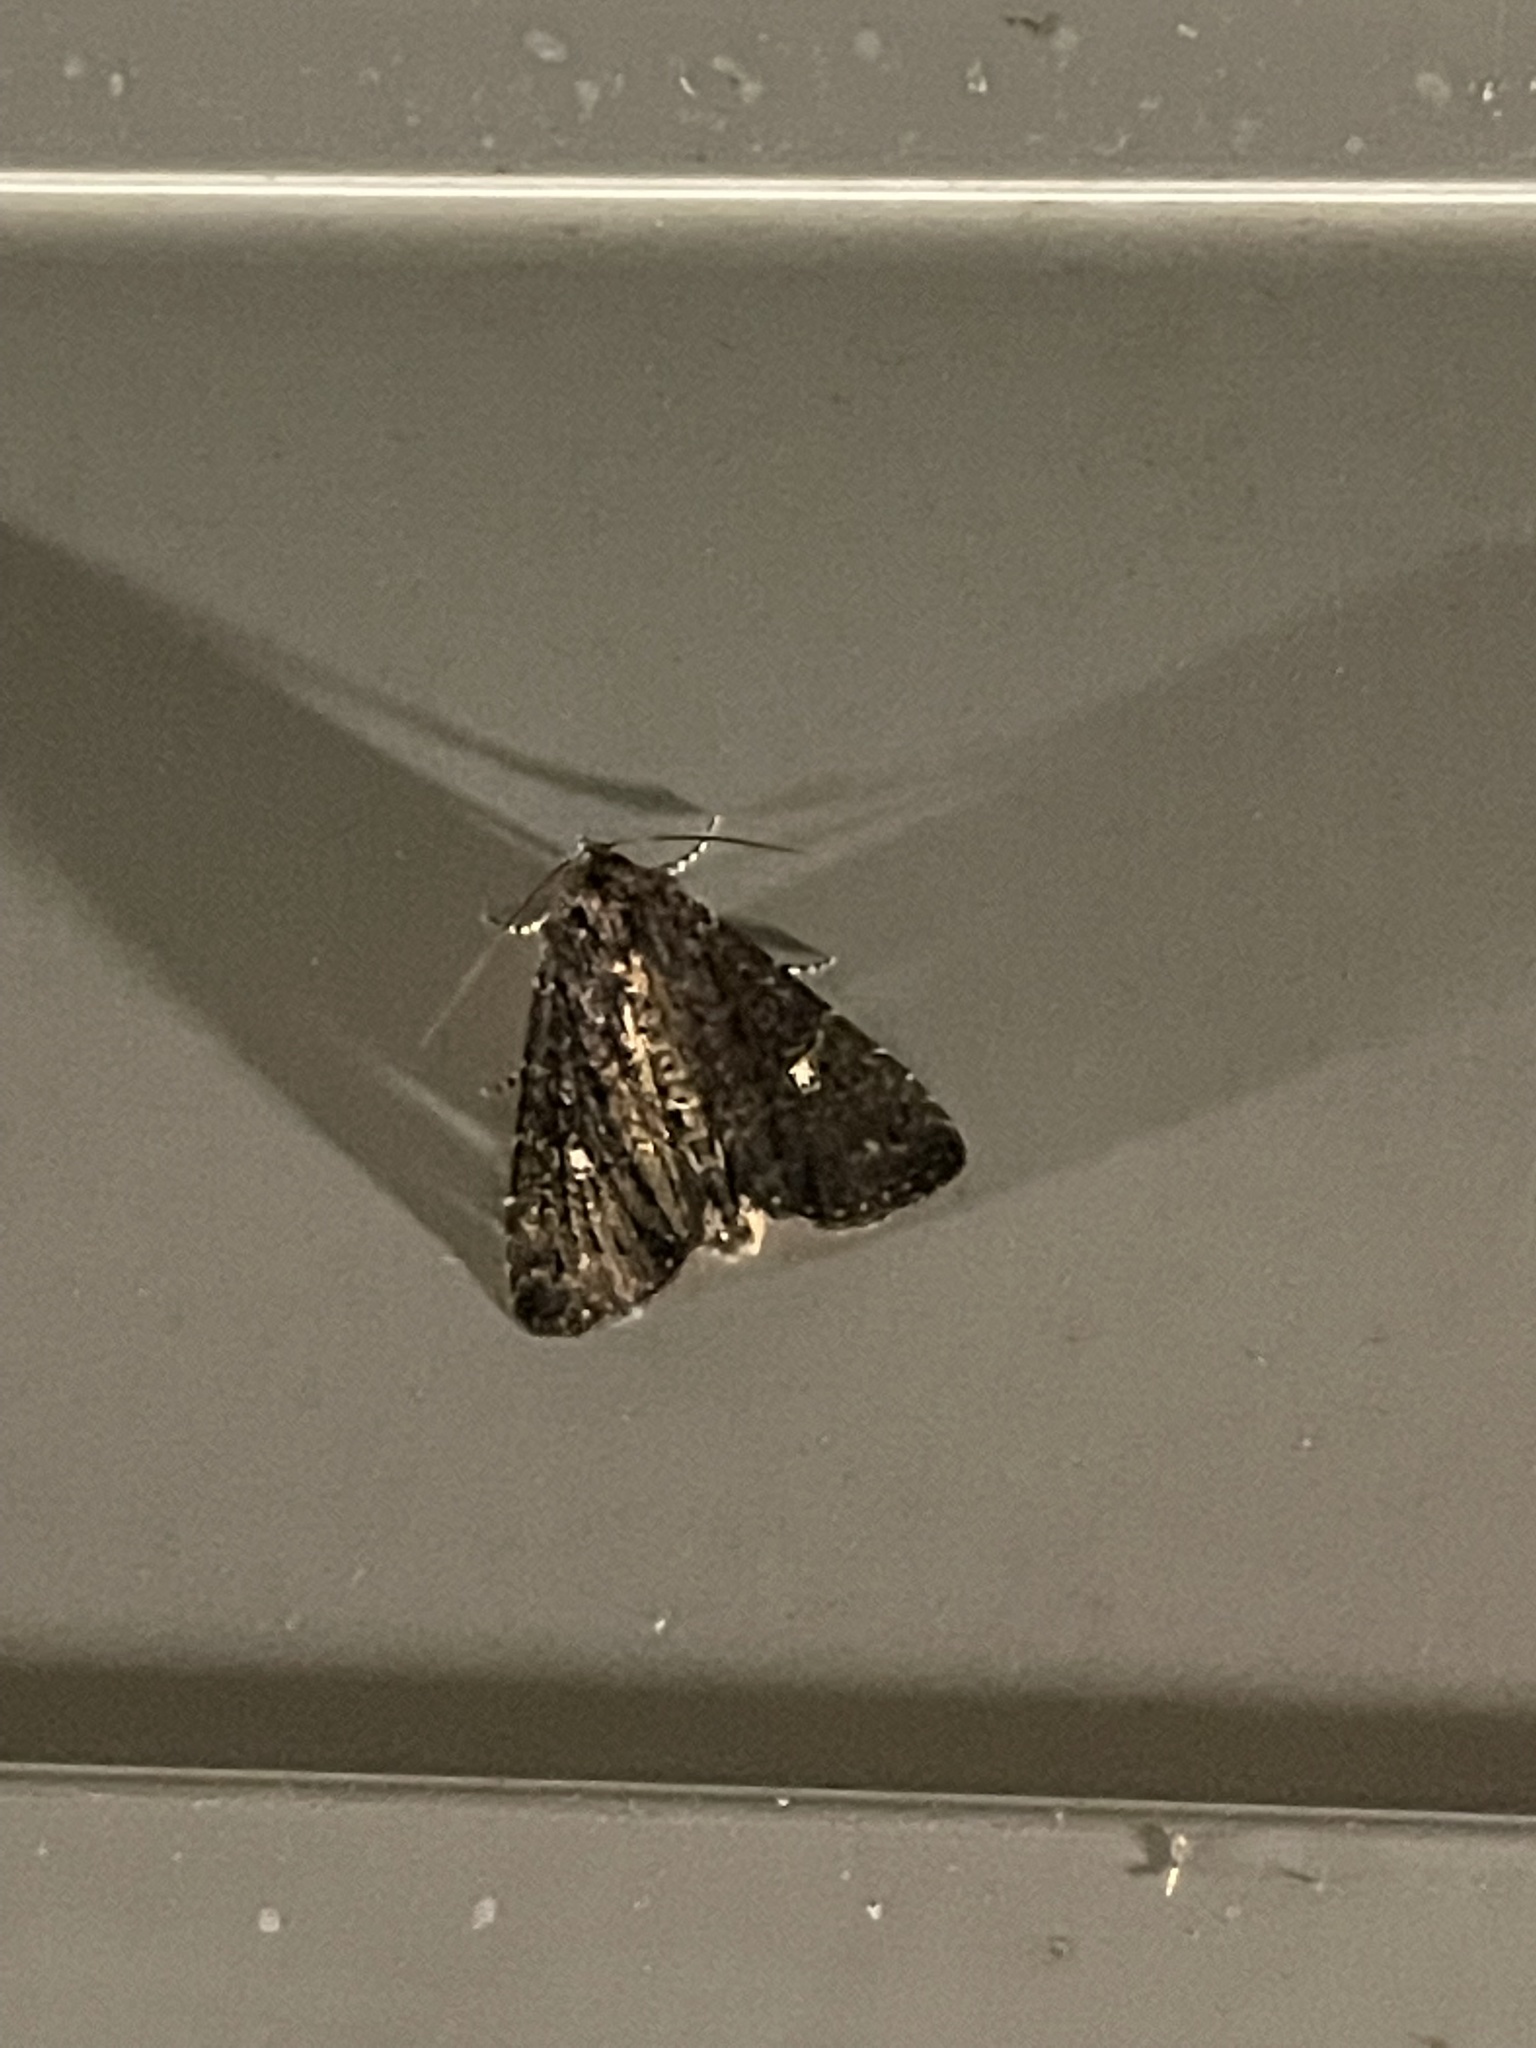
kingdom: Animalia
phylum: Arthropoda
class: Insecta
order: Lepidoptera
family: Noctuidae
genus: Condica
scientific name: Condica vecors
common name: Dusky groundling
